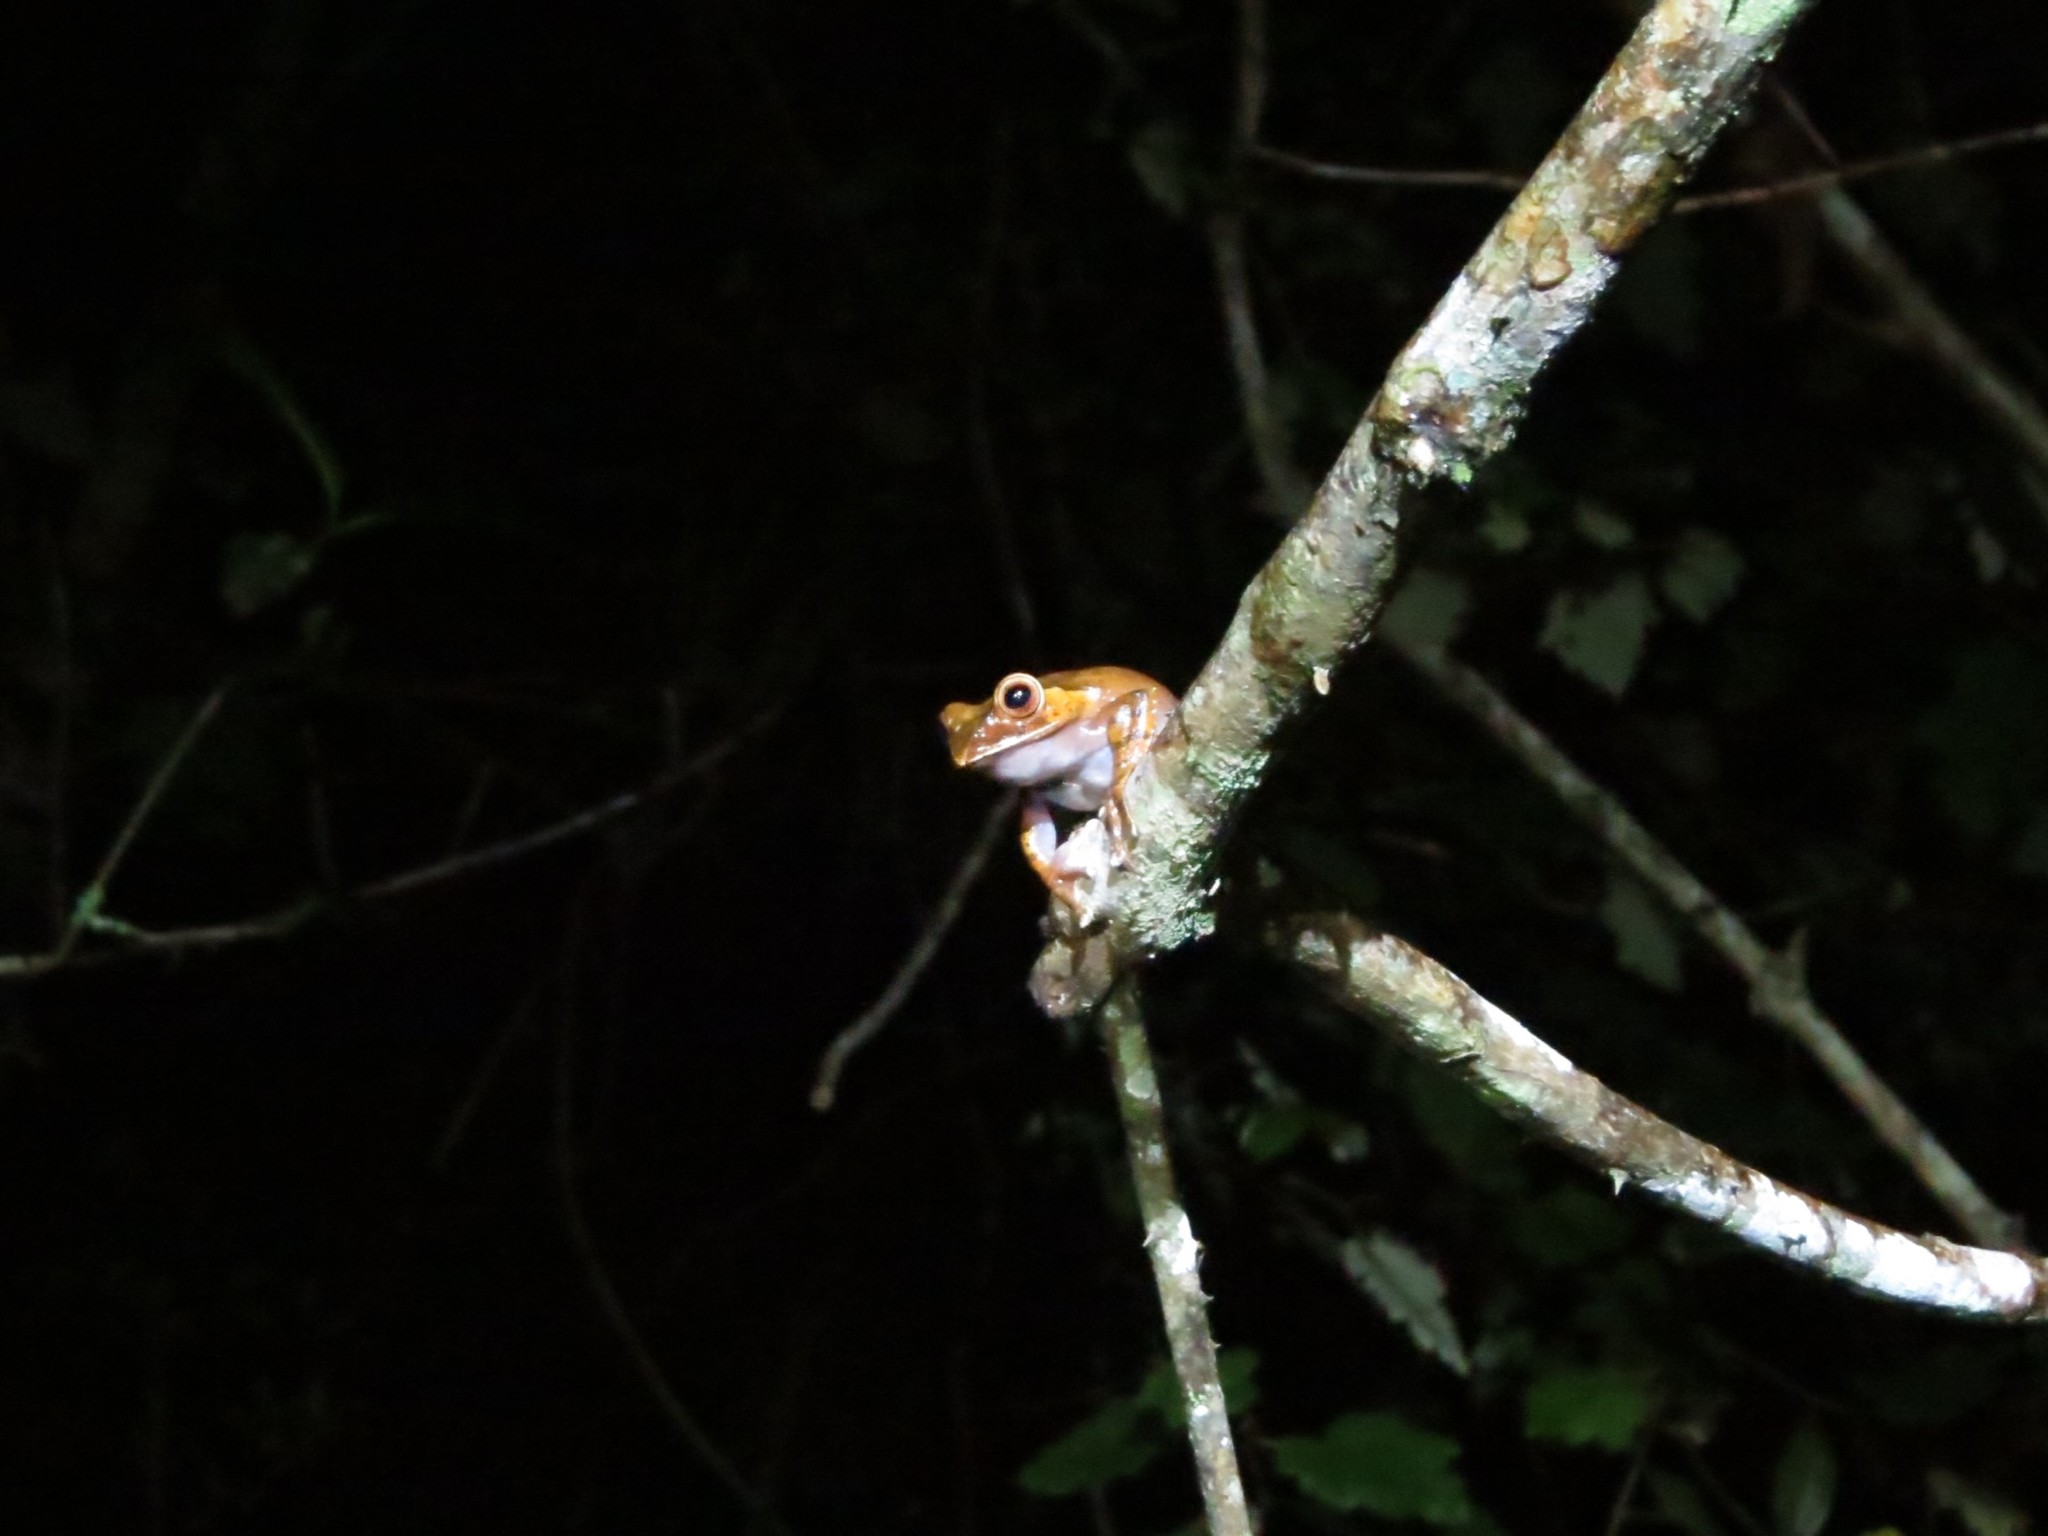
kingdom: Animalia
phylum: Chordata
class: Amphibia
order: Anura
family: Mantellidae
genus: Boophis
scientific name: Boophis madagascariensis
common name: Madagascar bright-eyed frog
